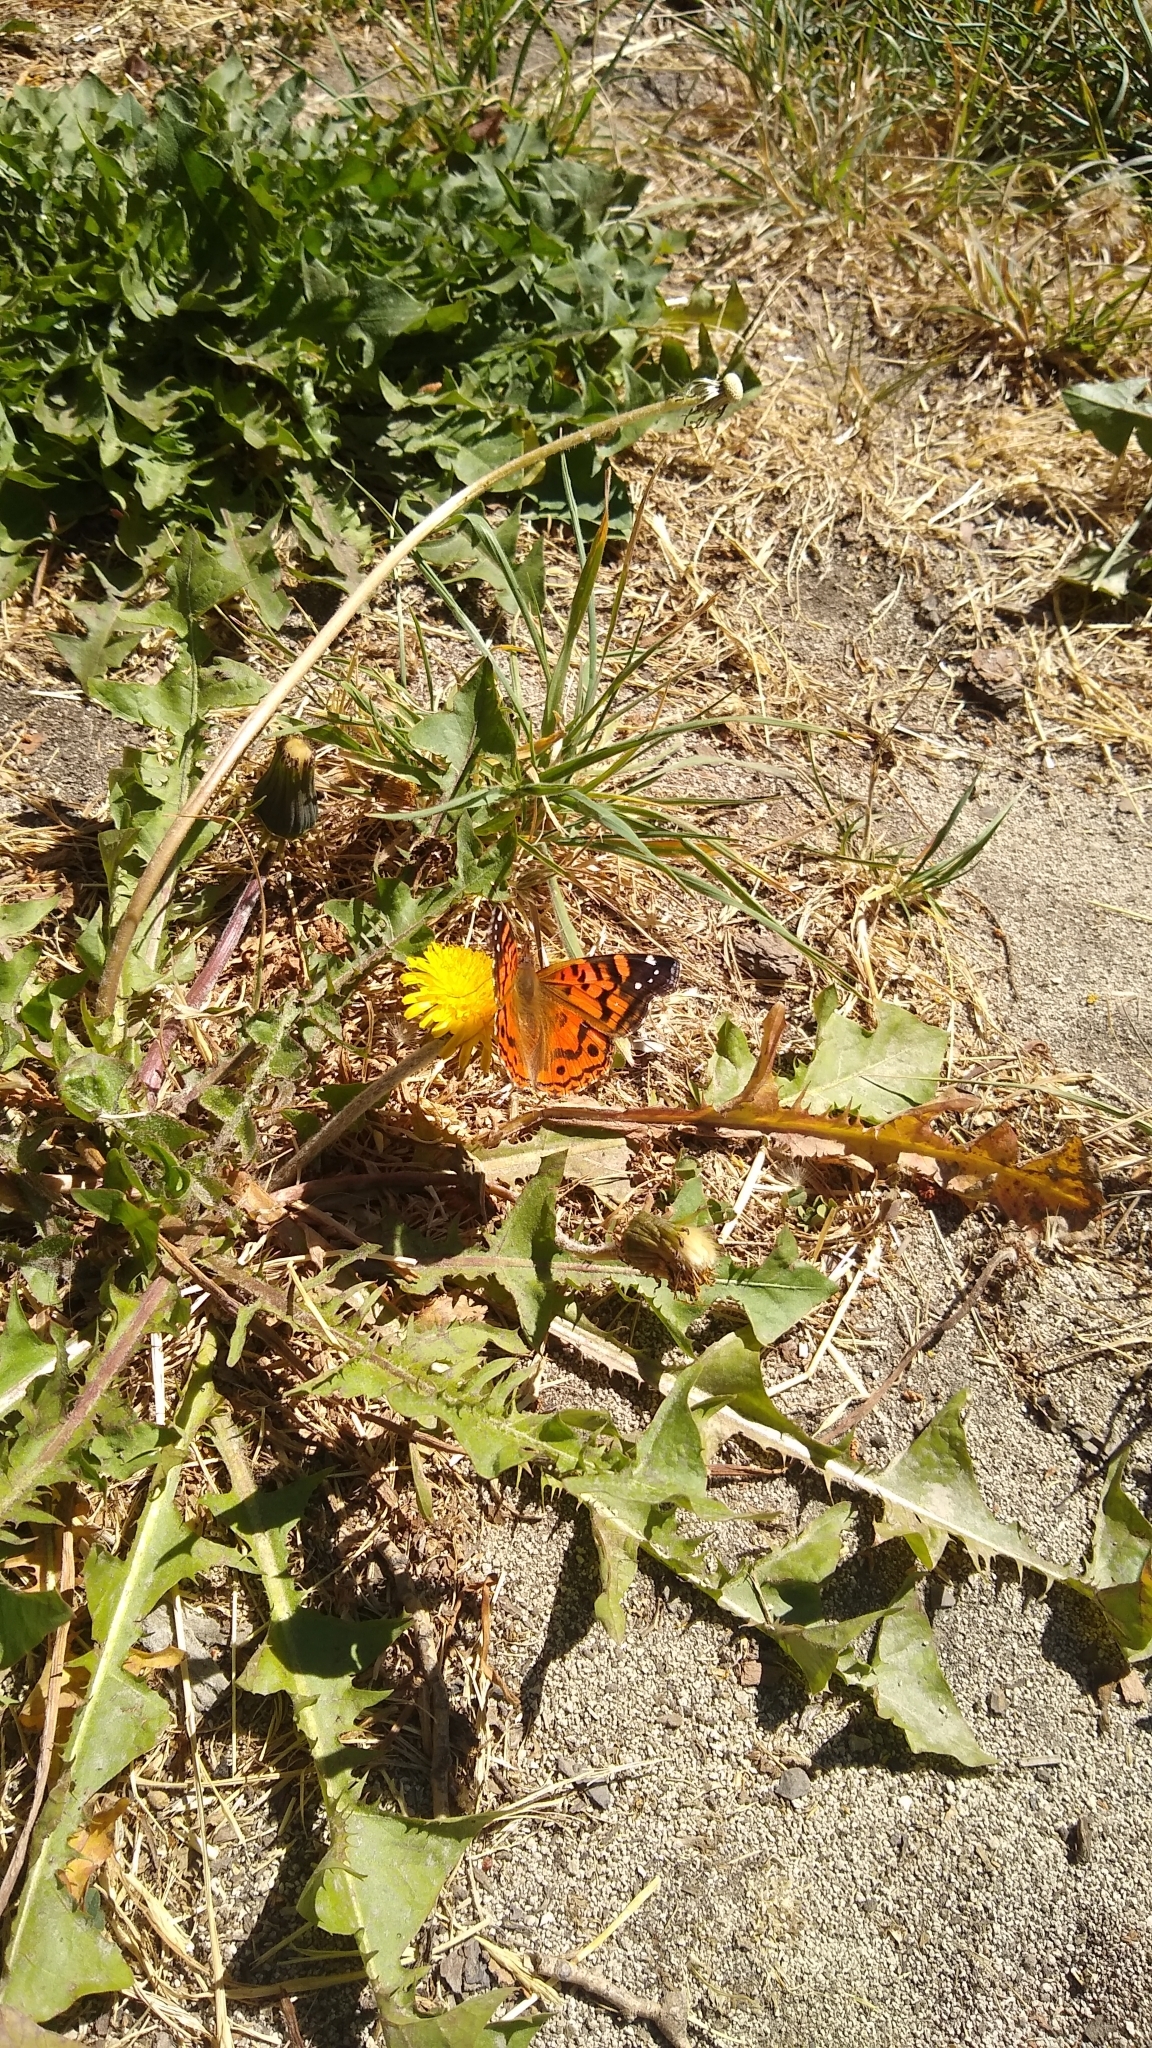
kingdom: Animalia
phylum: Arthropoda
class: Insecta
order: Lepidoptera
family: Nymphalidae
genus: Vanessa
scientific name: Vanessa terpsichore
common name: Chilean lady
